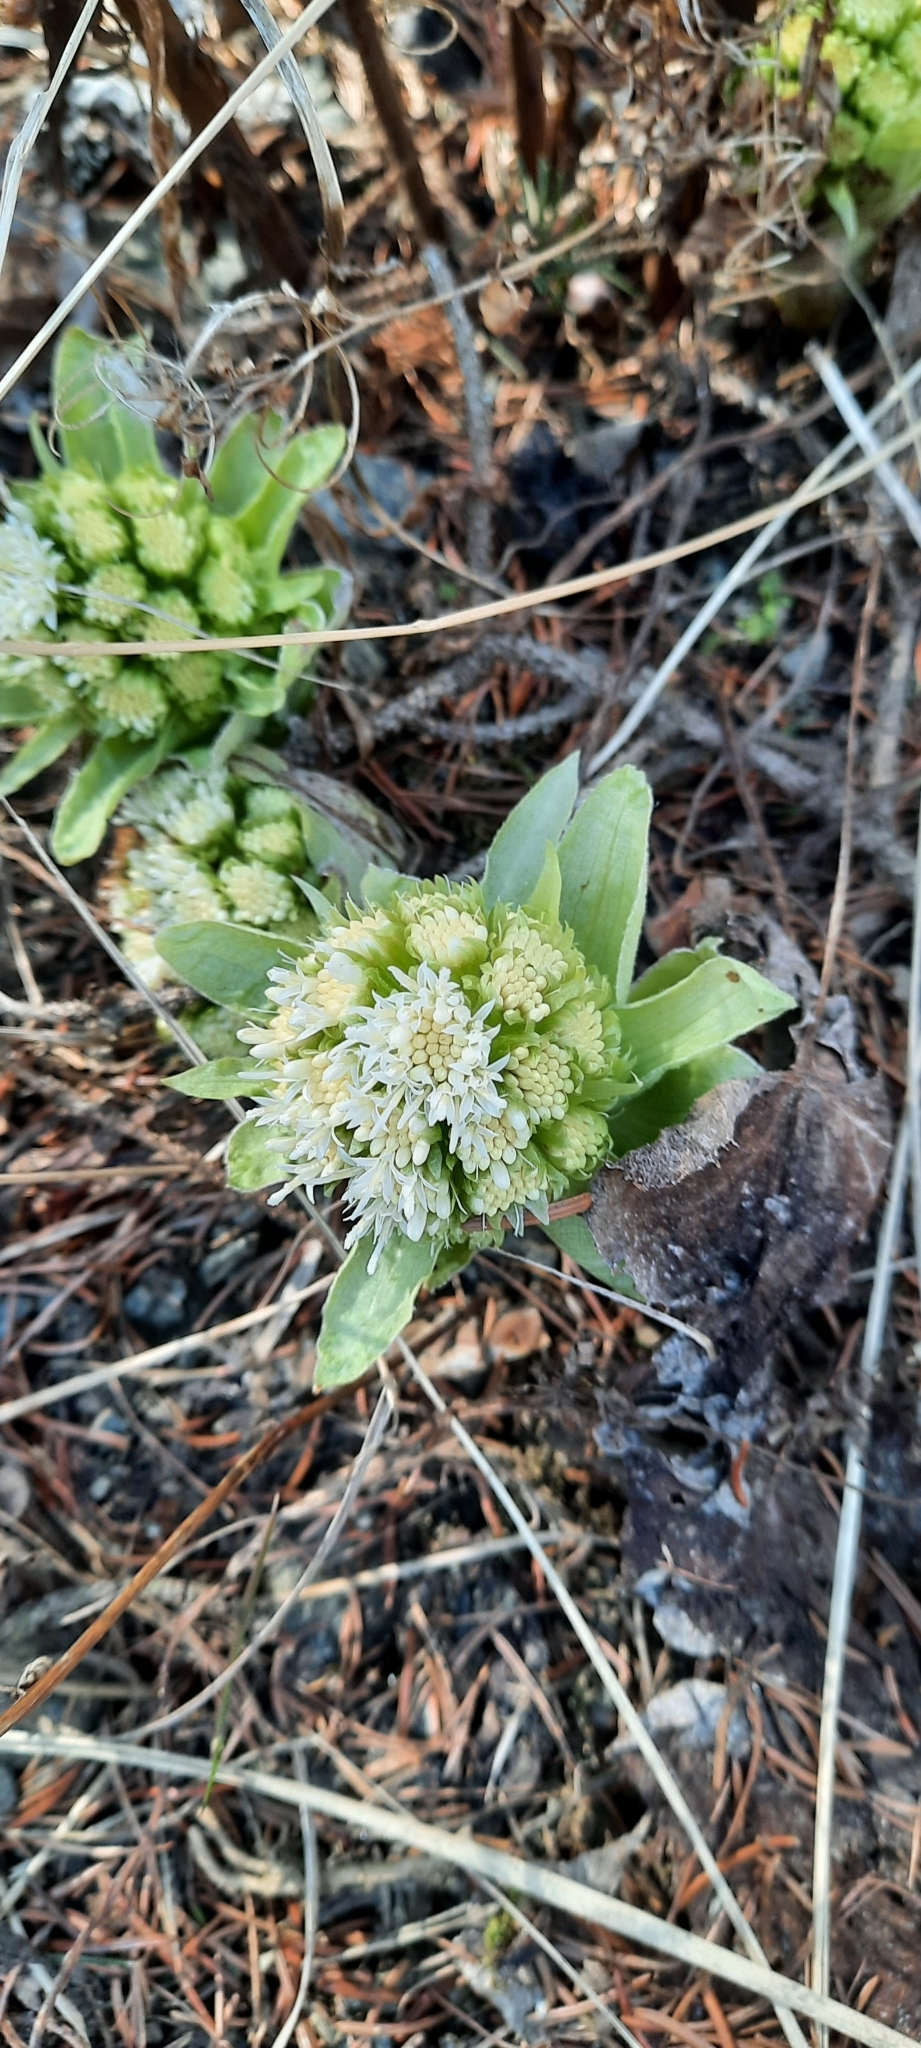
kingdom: Plantae
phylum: Tracheophyta
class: Magnoliopsida
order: Asterales
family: Asteraceae
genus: Petasites
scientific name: Petasites albus
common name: White butterbur
